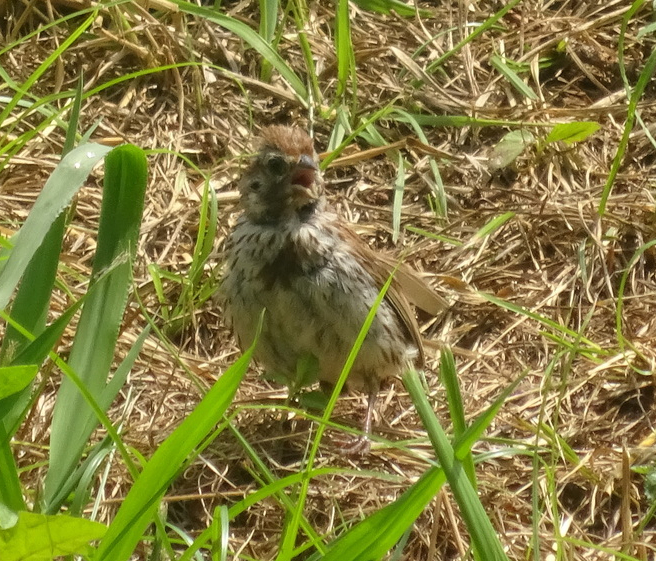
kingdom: Animalia
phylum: Chordata
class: Aves
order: Passeriformes
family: Passerellidae
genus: Melospiza
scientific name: Melospiza melodia
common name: Song sparrow
